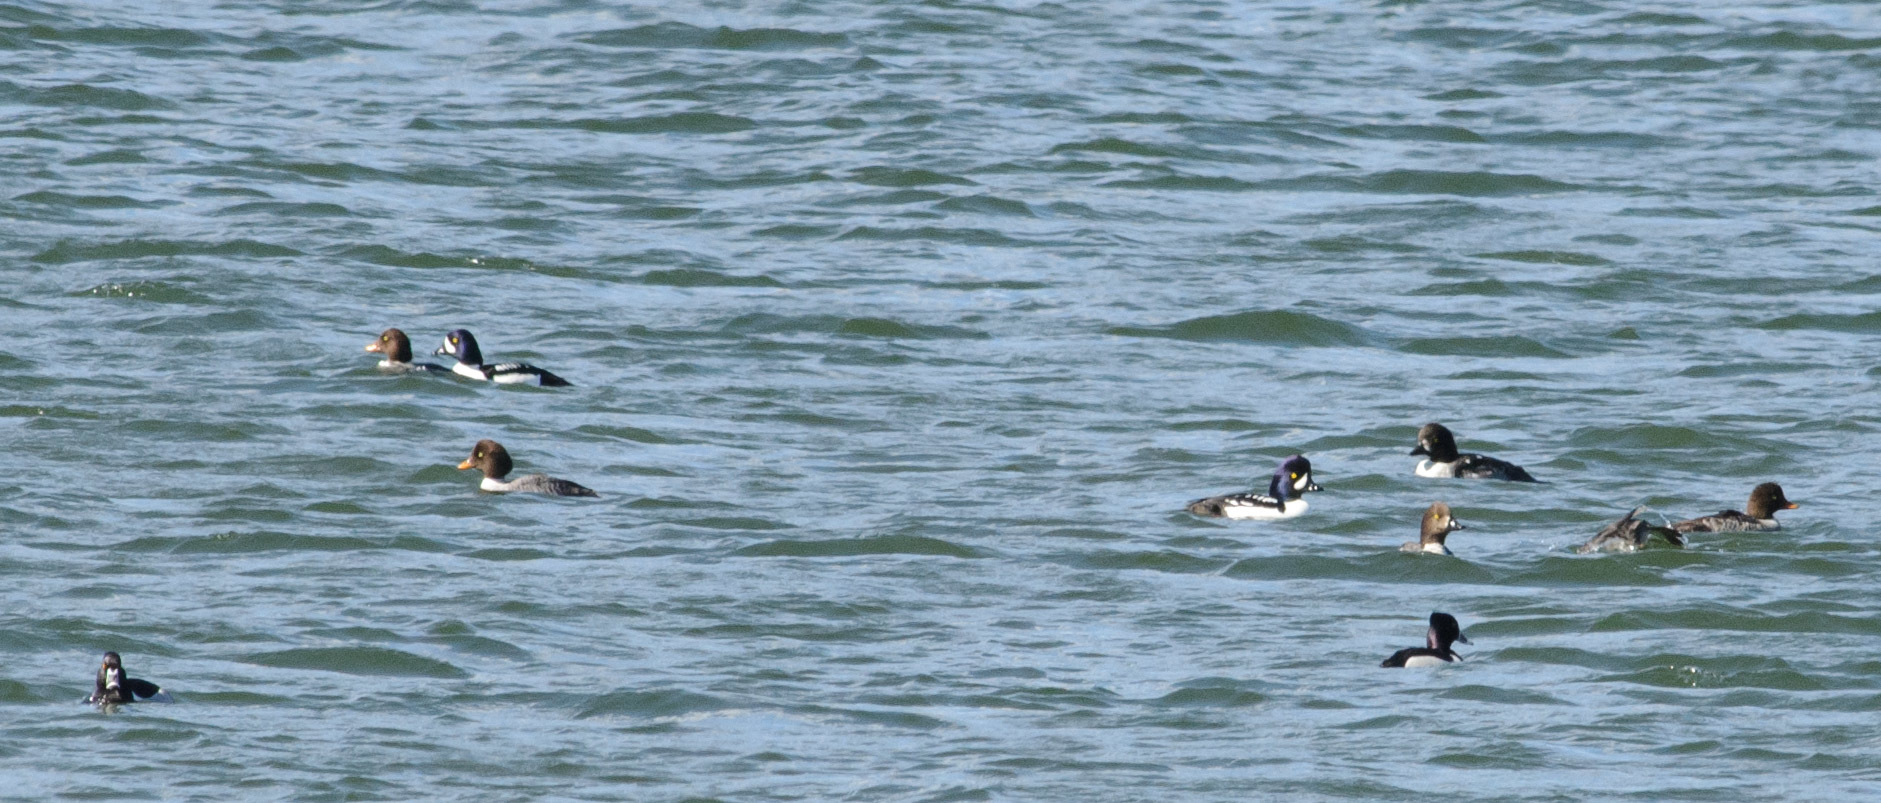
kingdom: Animalia
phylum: Chordata
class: Aves
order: Anseriformes
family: Anatidae
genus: Bucephala
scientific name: Bucephala islandica
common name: Barrow's goldeneye
